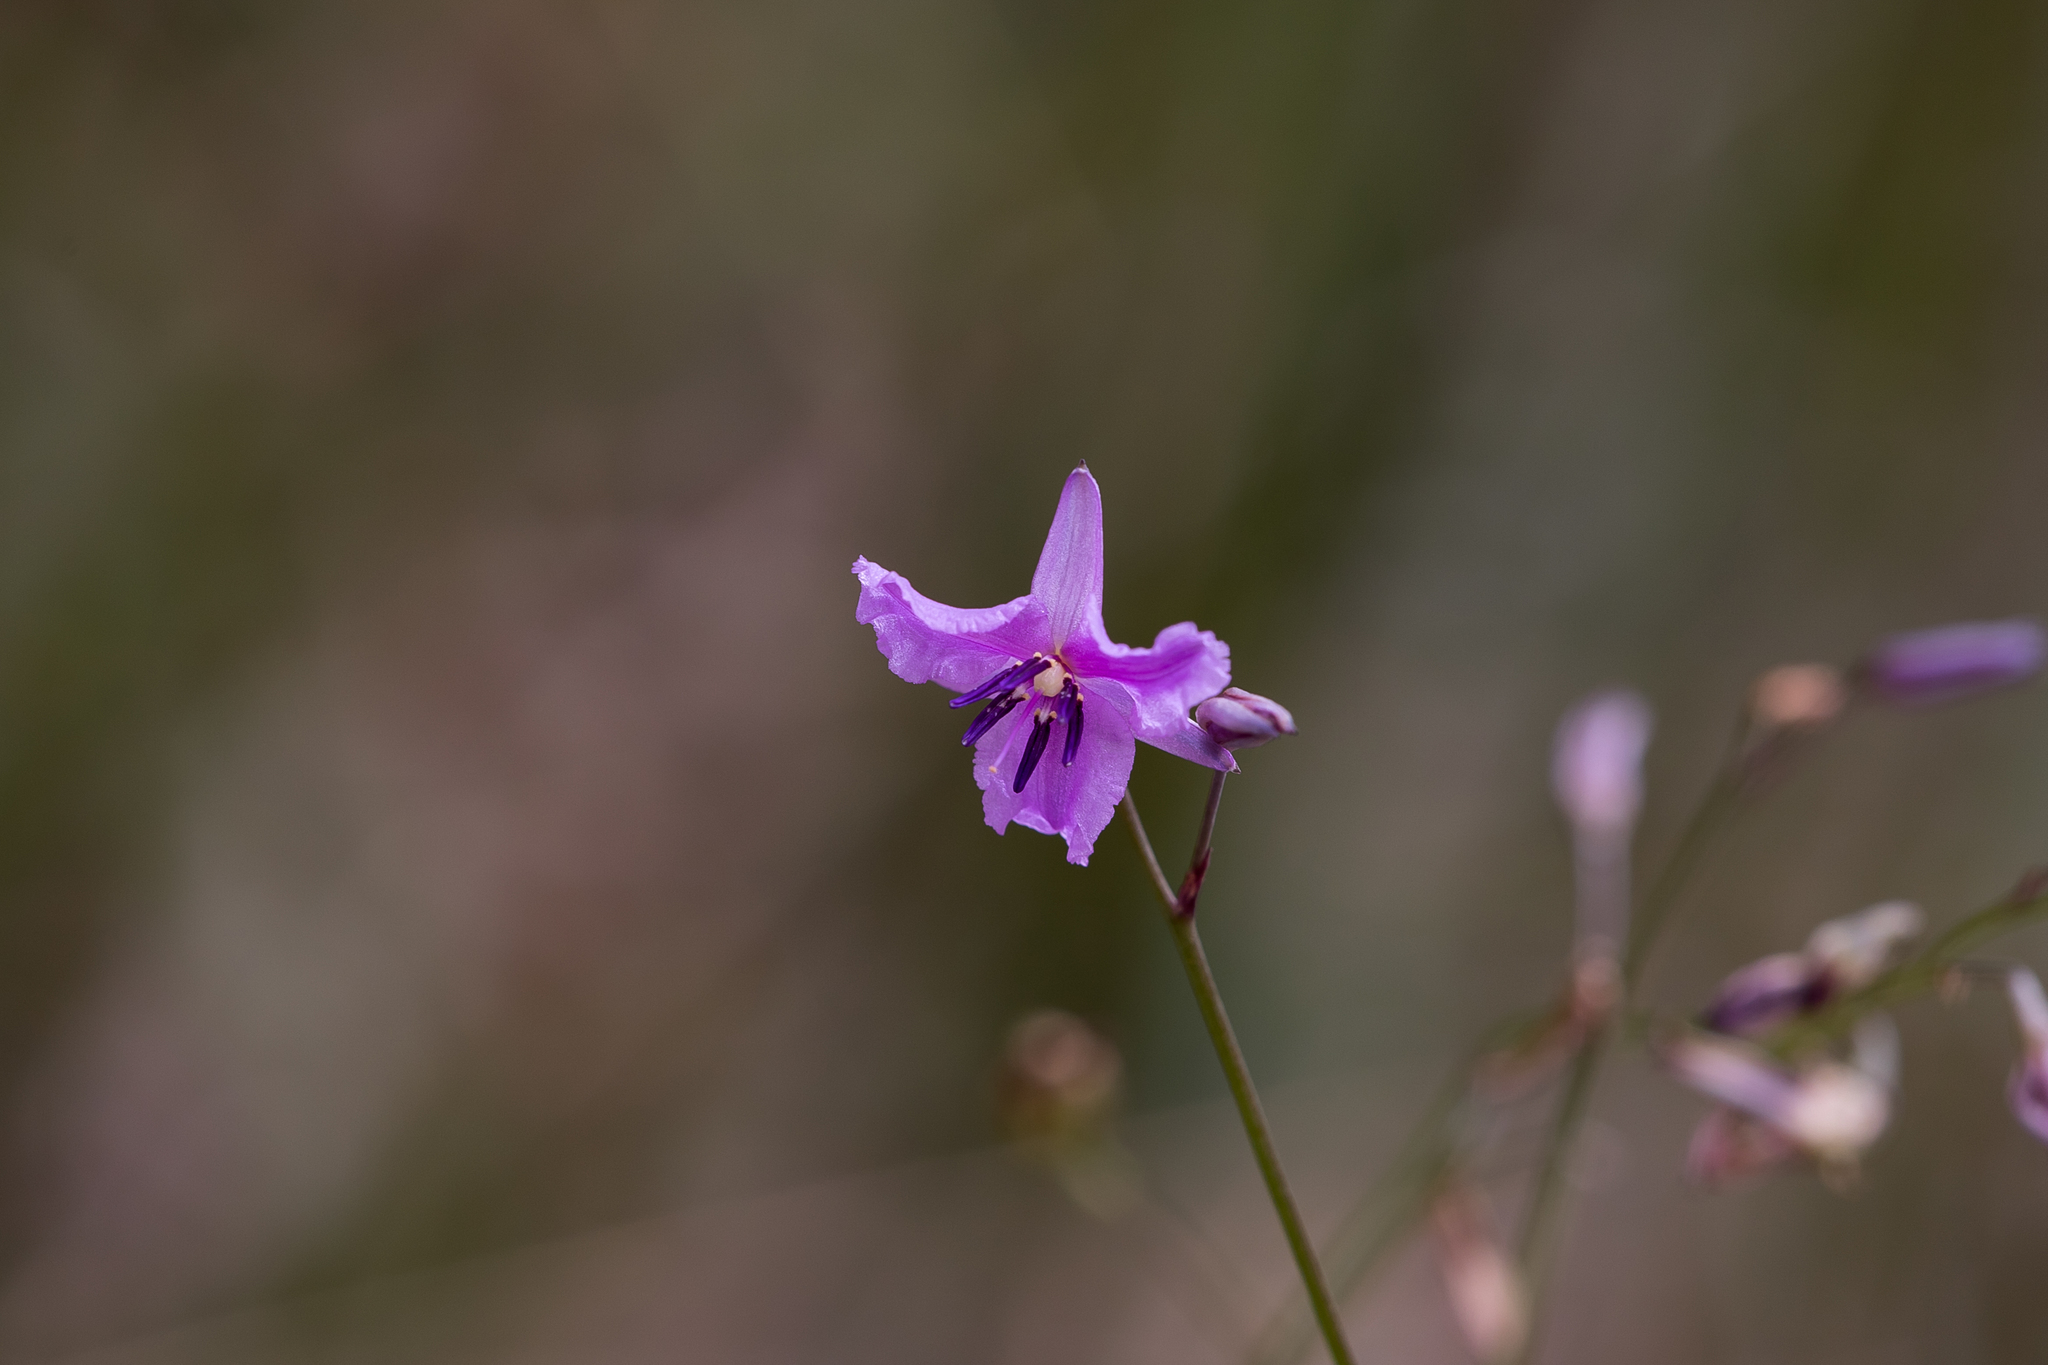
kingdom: Plantae
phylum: Tracheophyta
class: Liliopsida
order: Asparagales
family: Asparagaceae
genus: Arthropodium
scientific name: Arthropodium strictum
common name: Chocolate-lily
